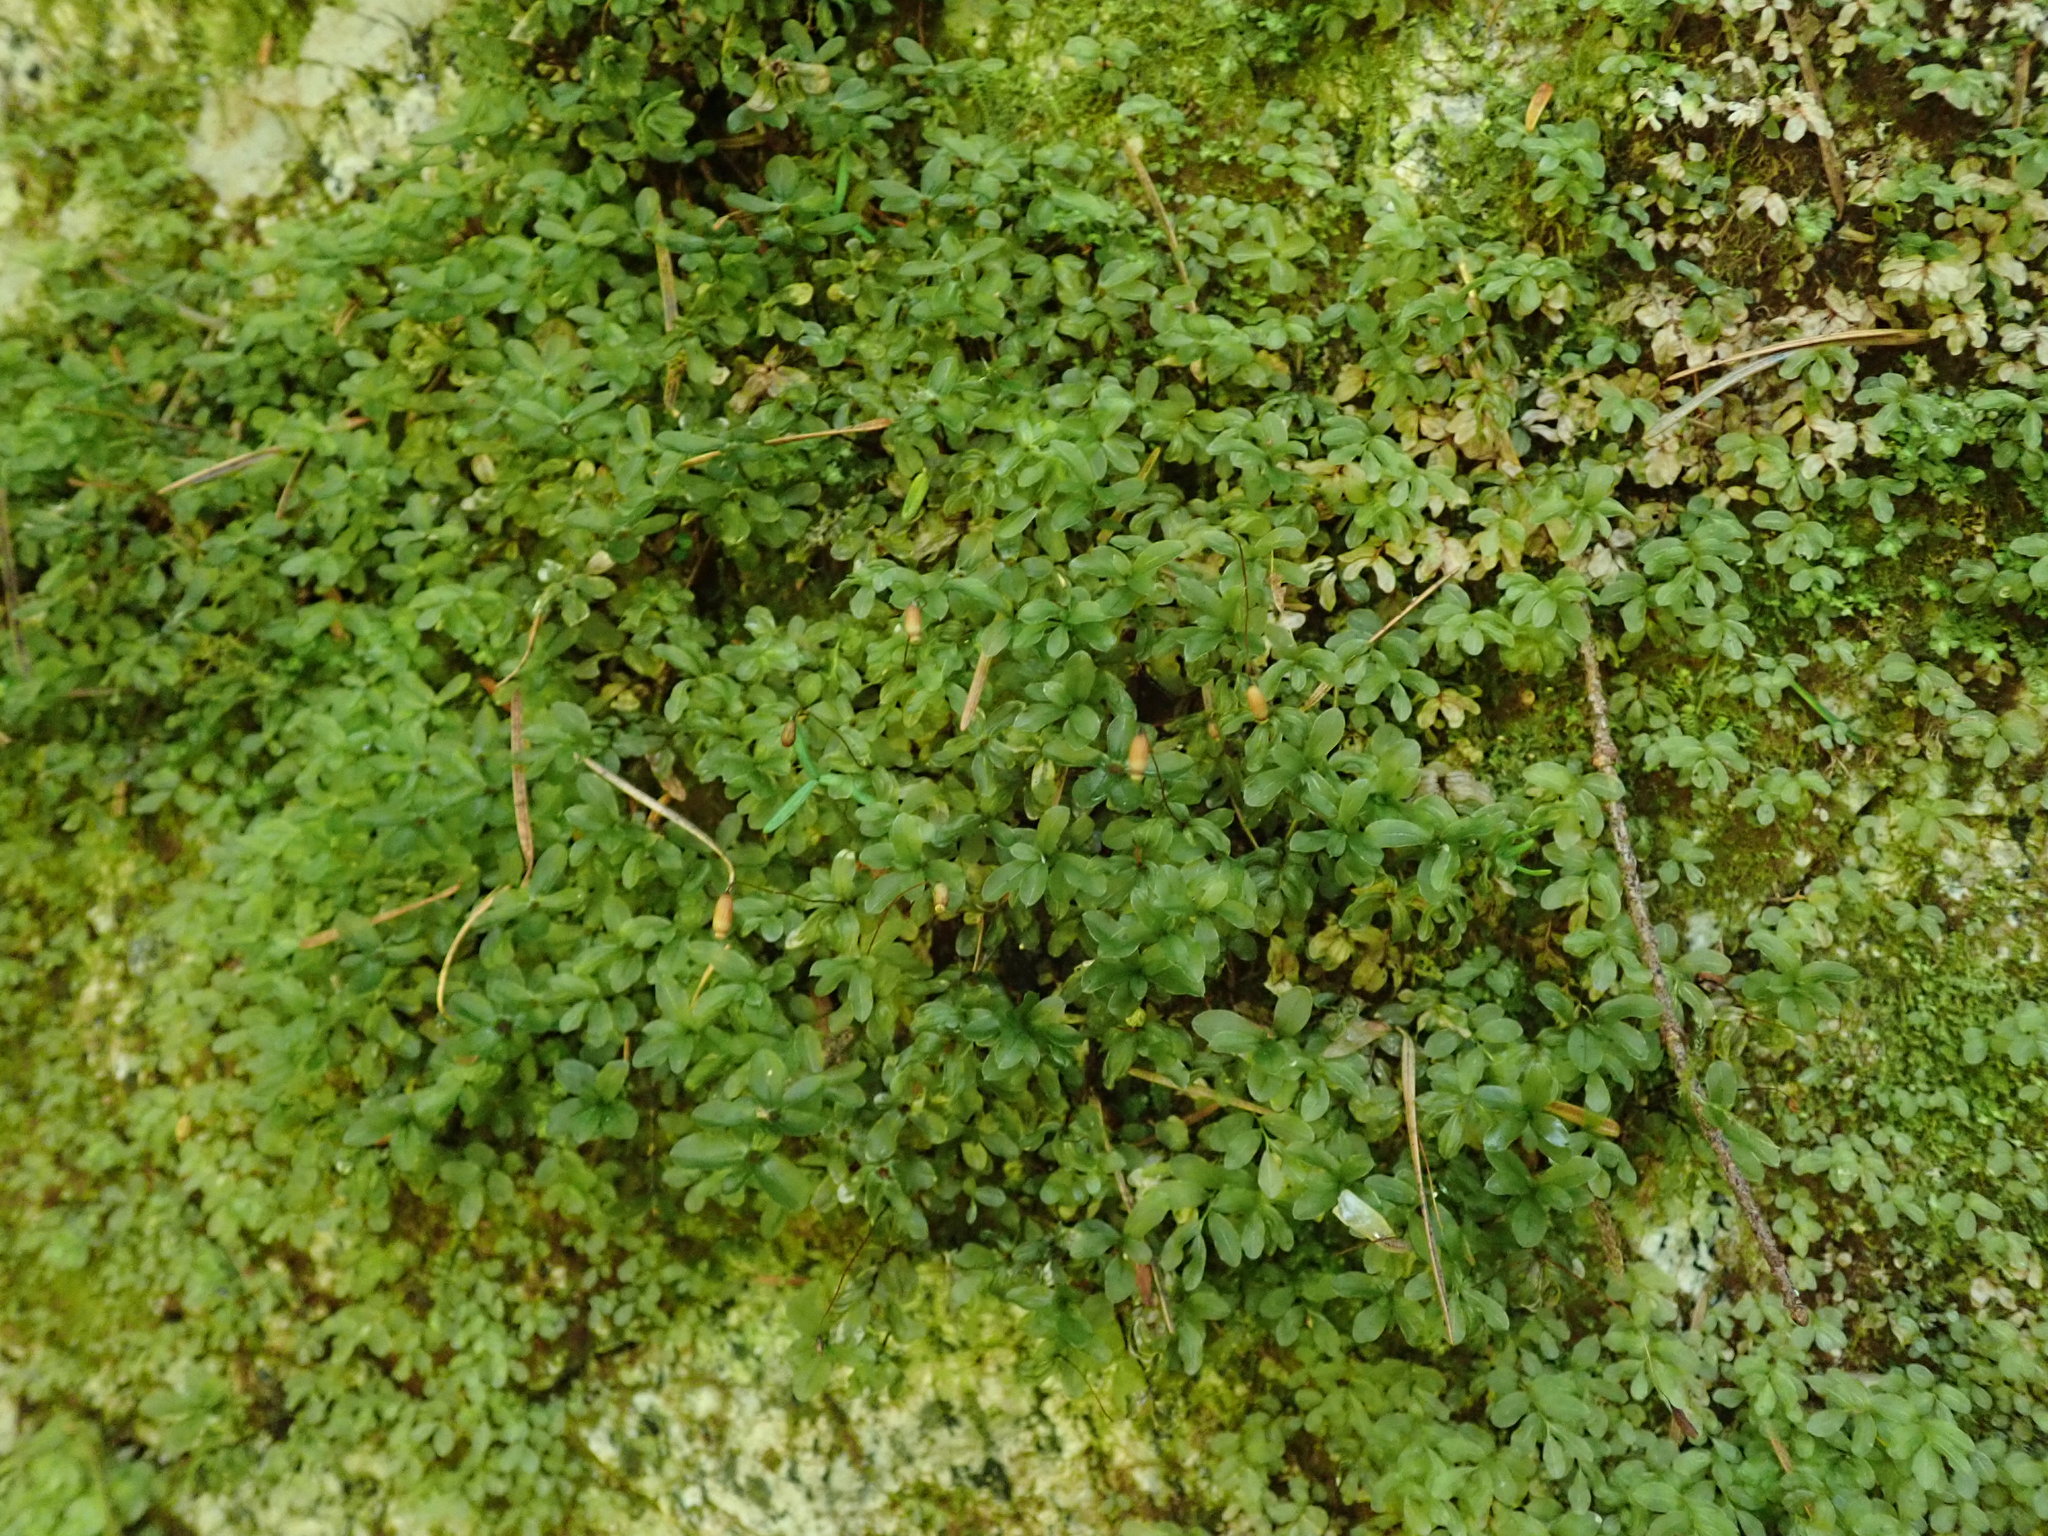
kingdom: Plantae
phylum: Bryophyta
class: Bryopsida
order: Bryales
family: Mniaceae
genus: Rhizomnium
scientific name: Rhizomnium glabrescens
